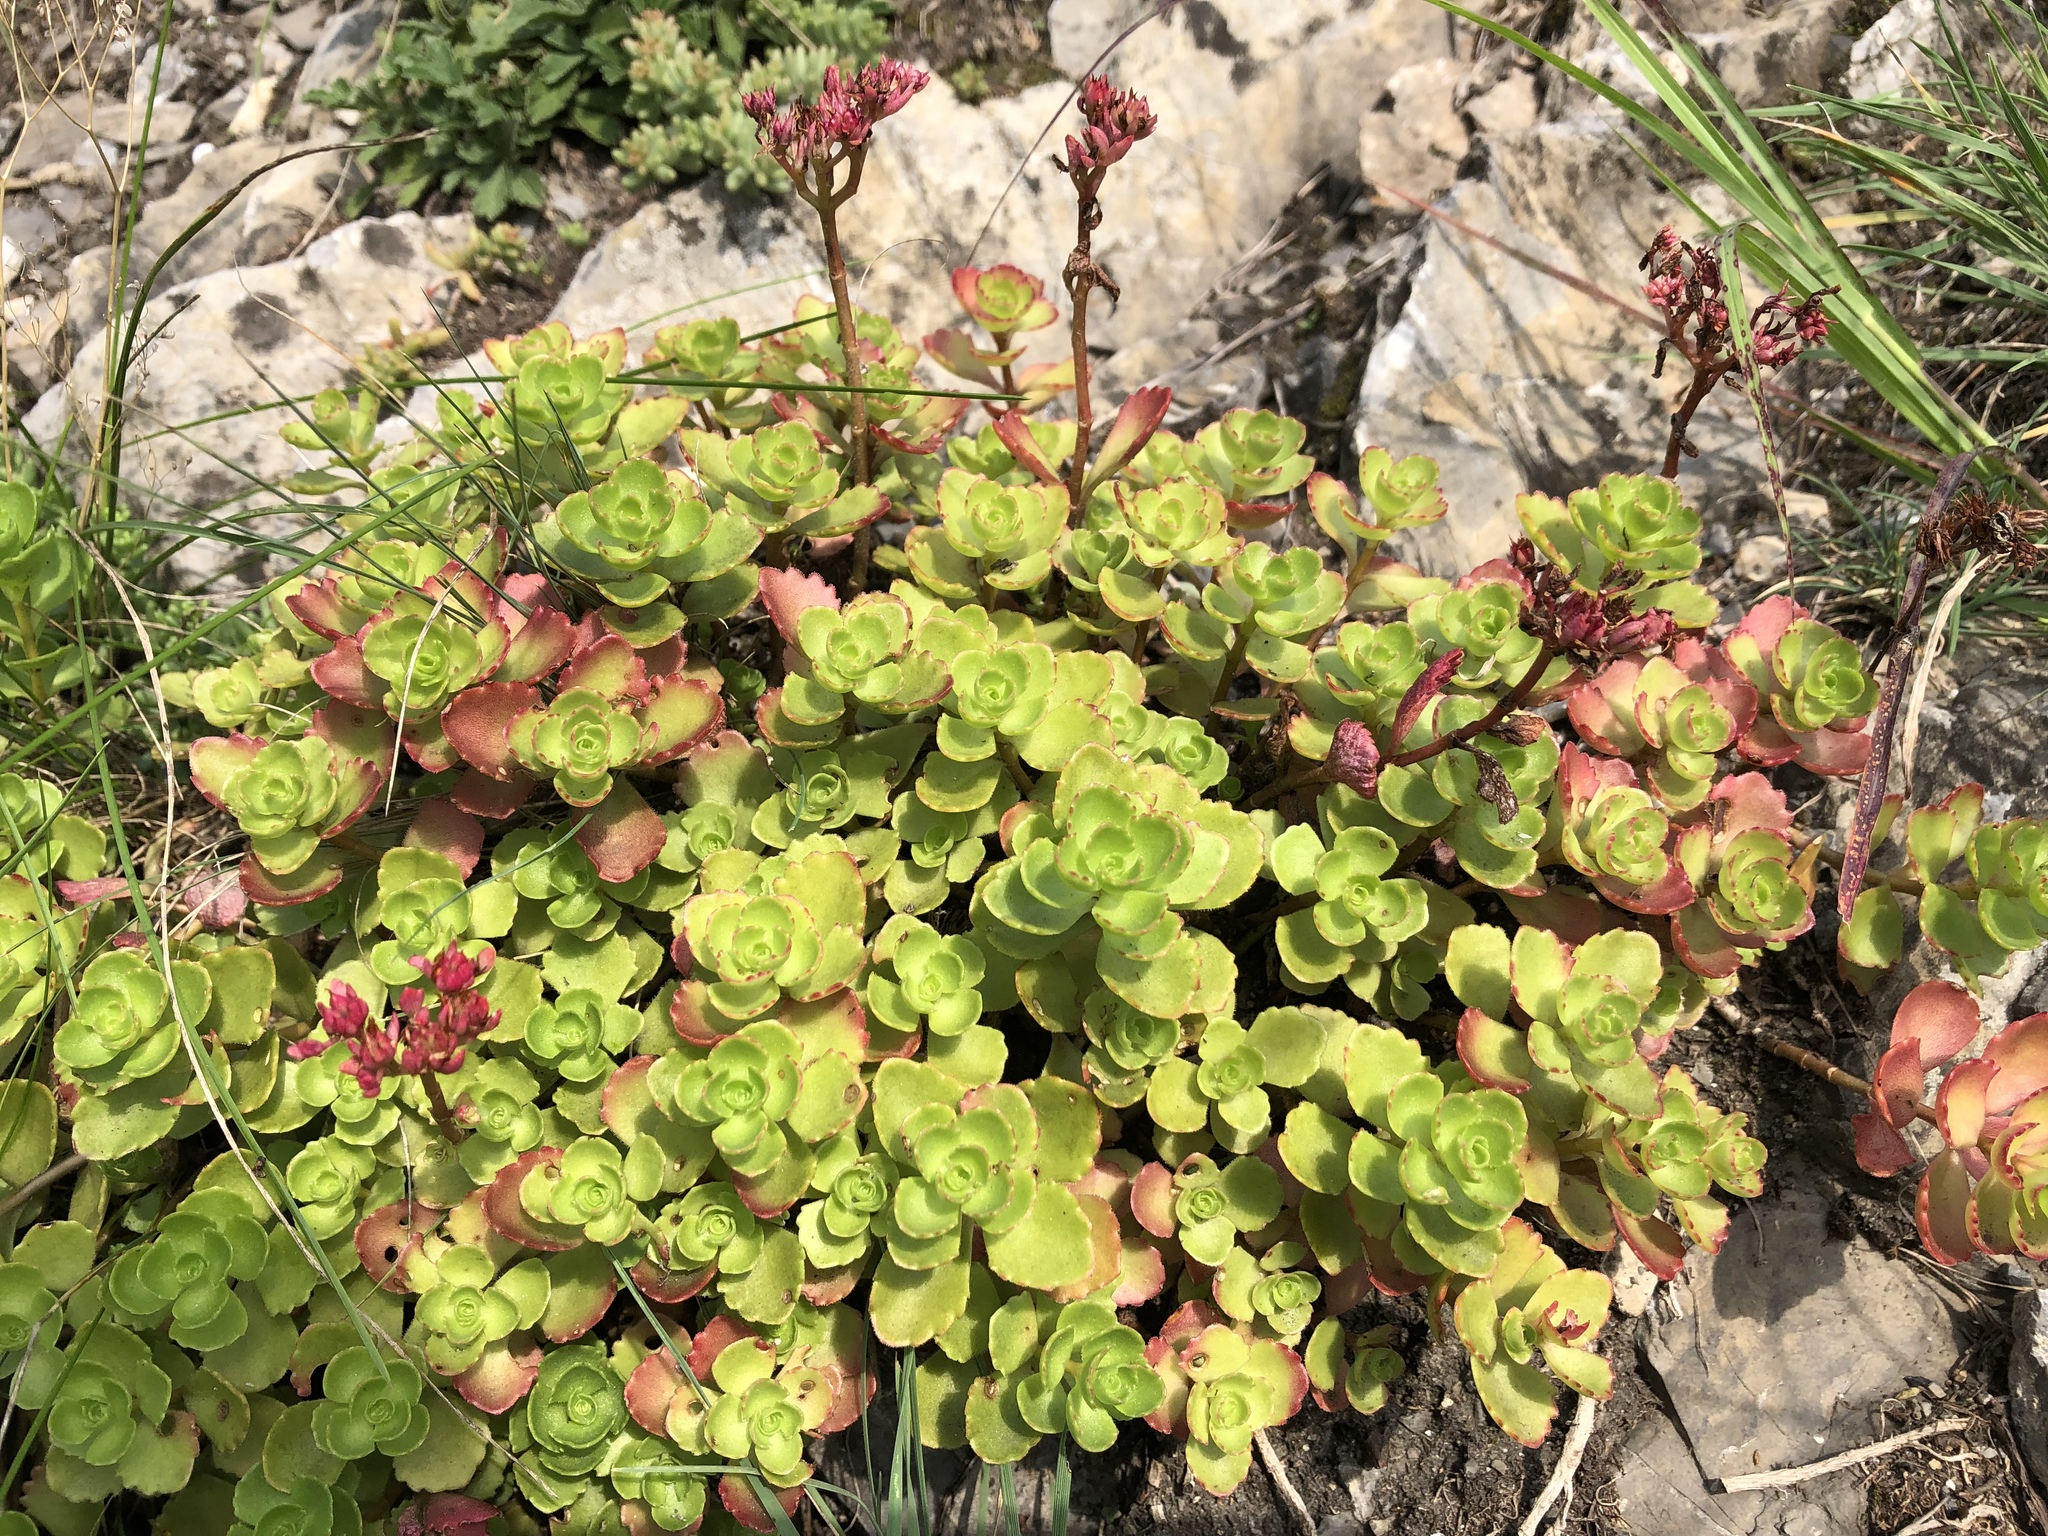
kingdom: Plantae
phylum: Tracheophyta
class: Magnoliopsida
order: Saxifragales
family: Crassulaceae
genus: Phedimus
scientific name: Phedimus spurius
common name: Caucasian stonecrop
